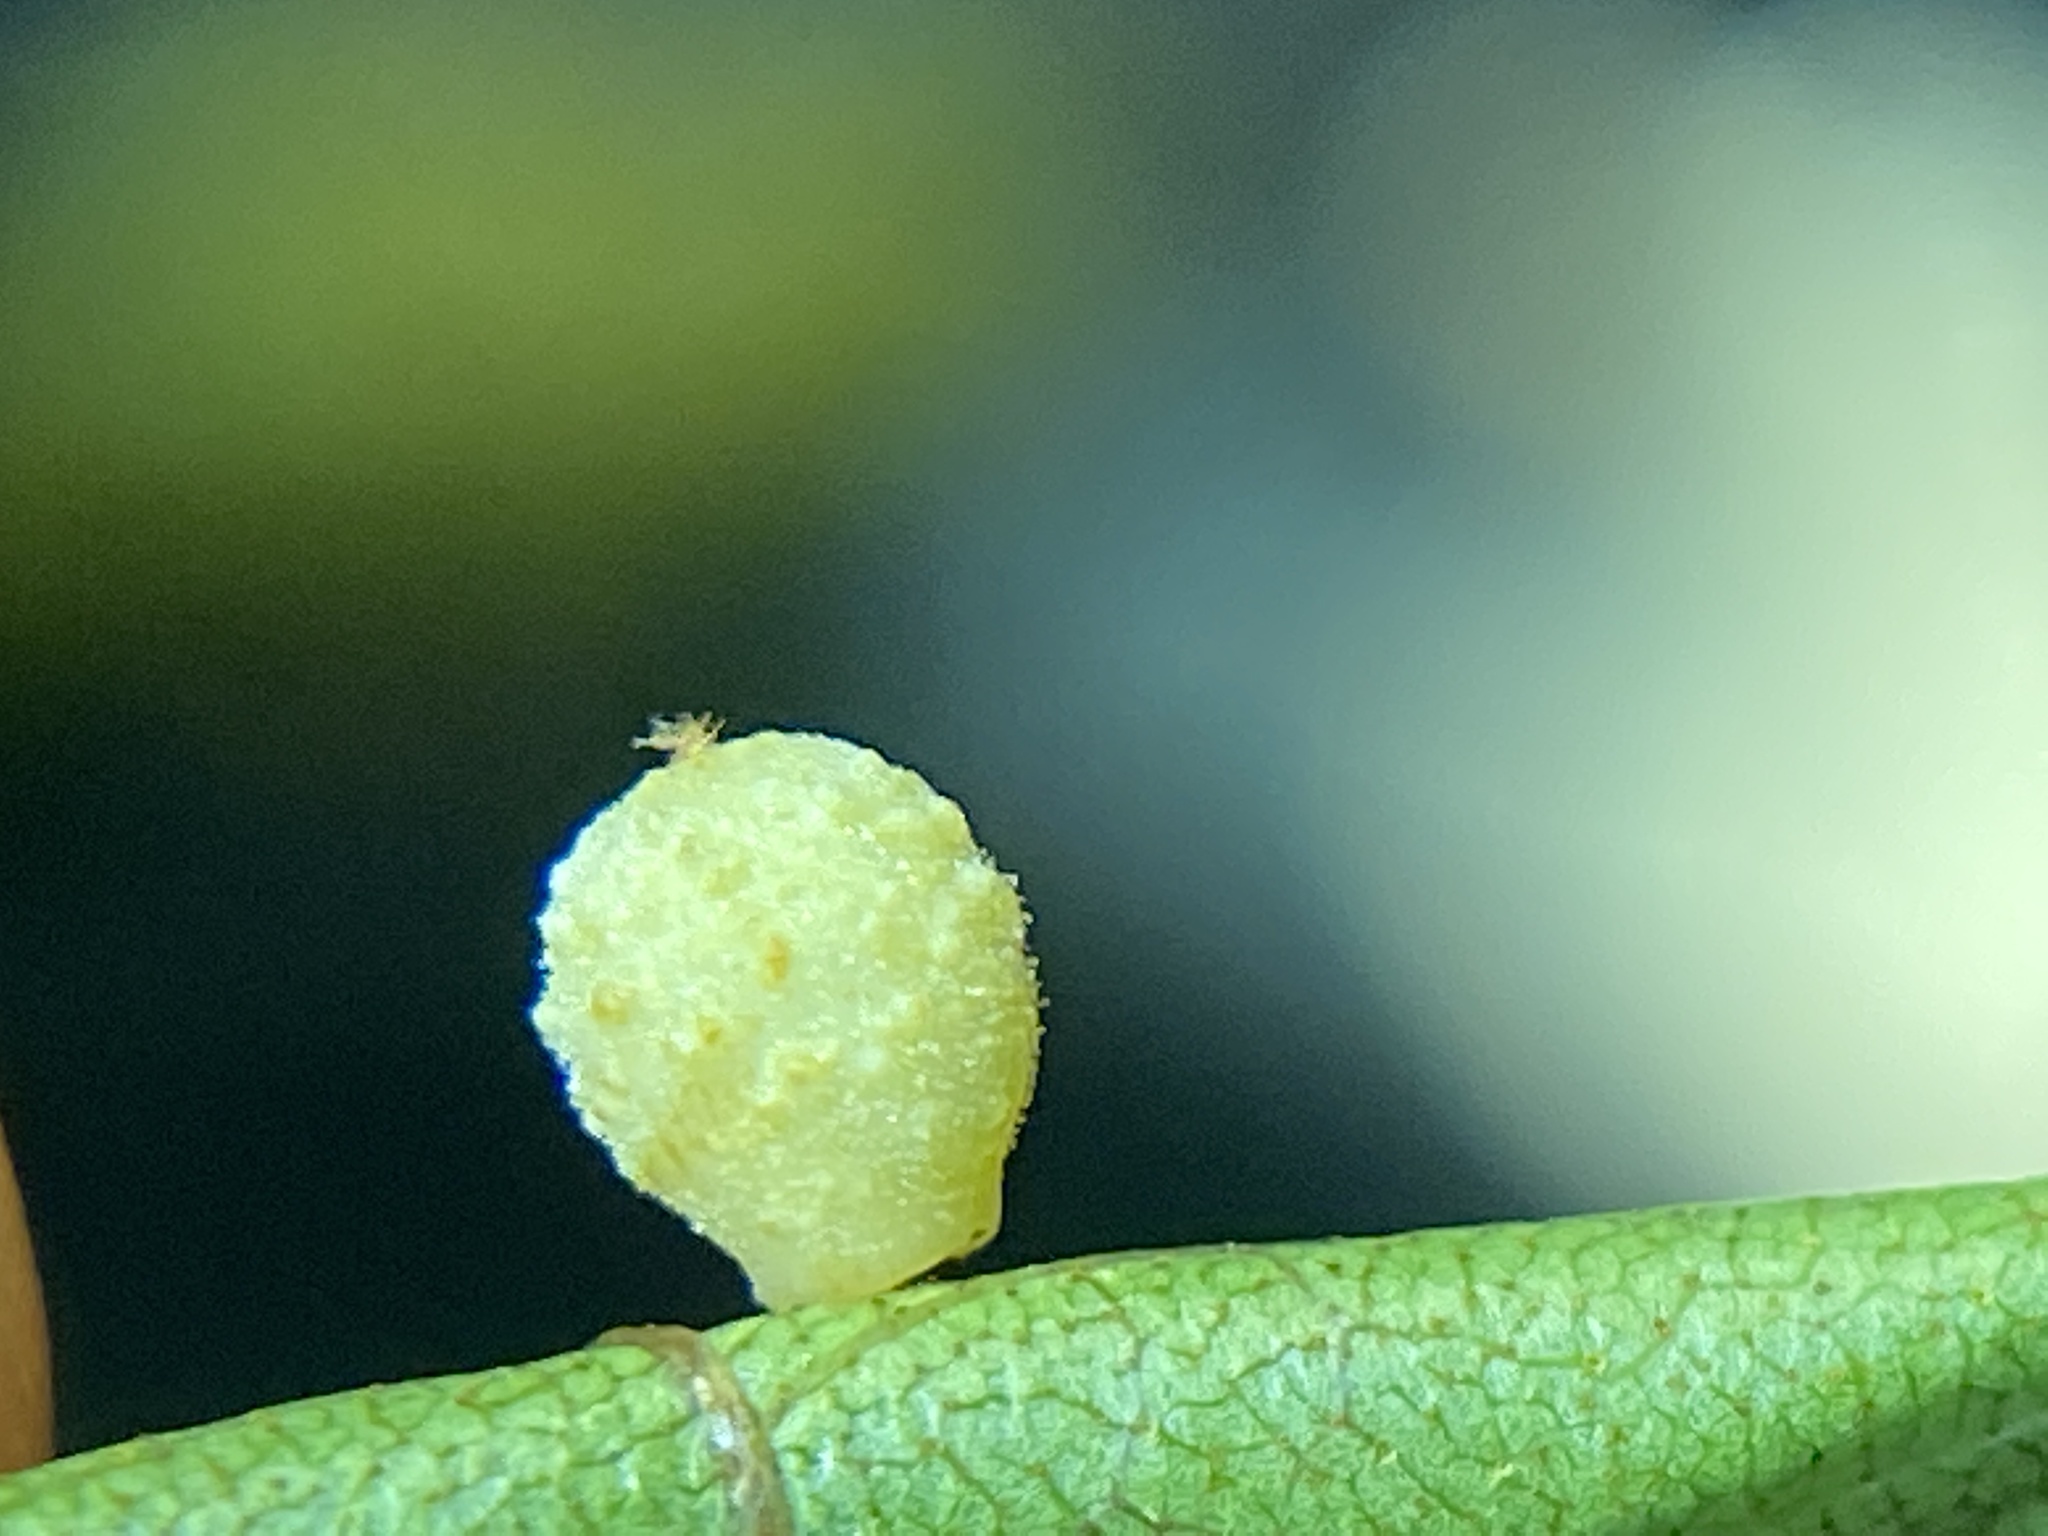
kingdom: Animalia
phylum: Arthropoda
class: Insecta
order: Diptera
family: Cecidomyiidae
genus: Caryomyia
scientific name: Caryomyia tuberidolium
